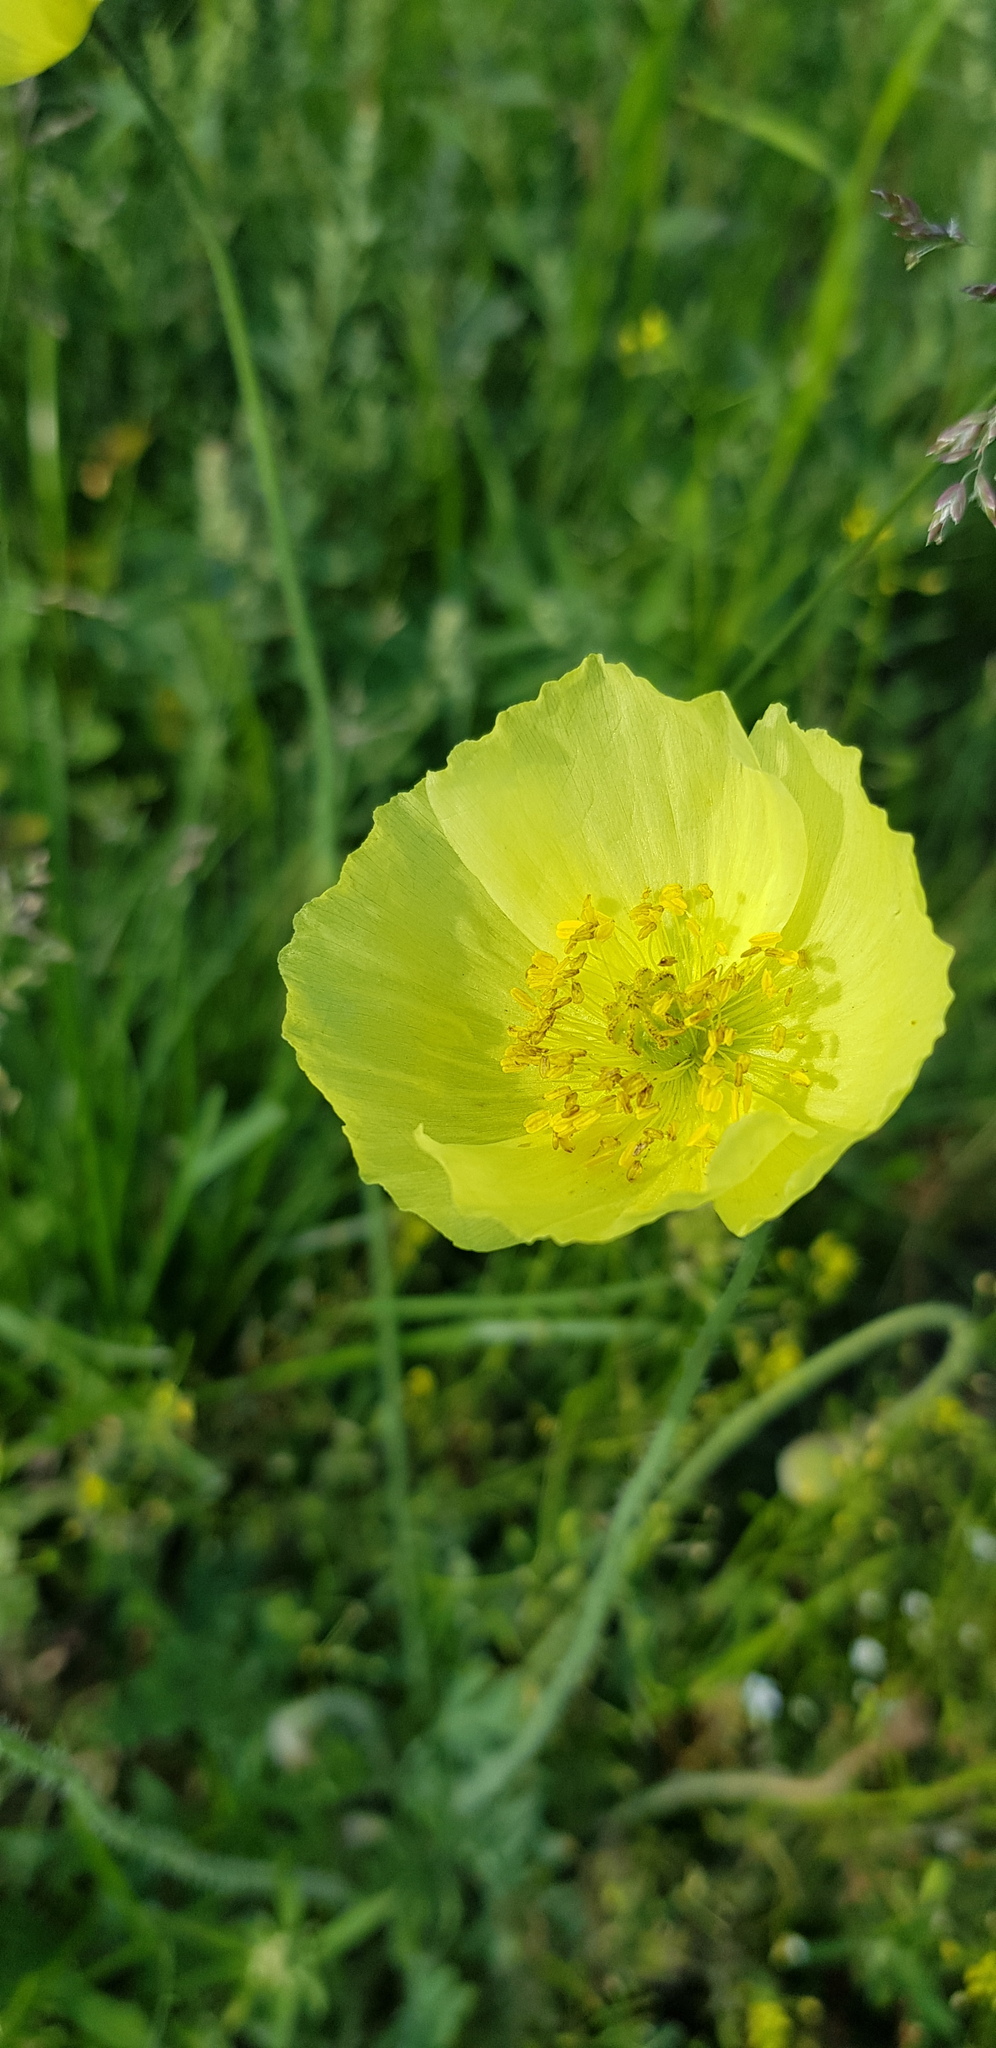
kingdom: Plantae
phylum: Tracheophyta
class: Magnoliopsida
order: Ranunculales
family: Papaveraceae
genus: Papaver
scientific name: Papaver nudicaule
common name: Arctic poppy
